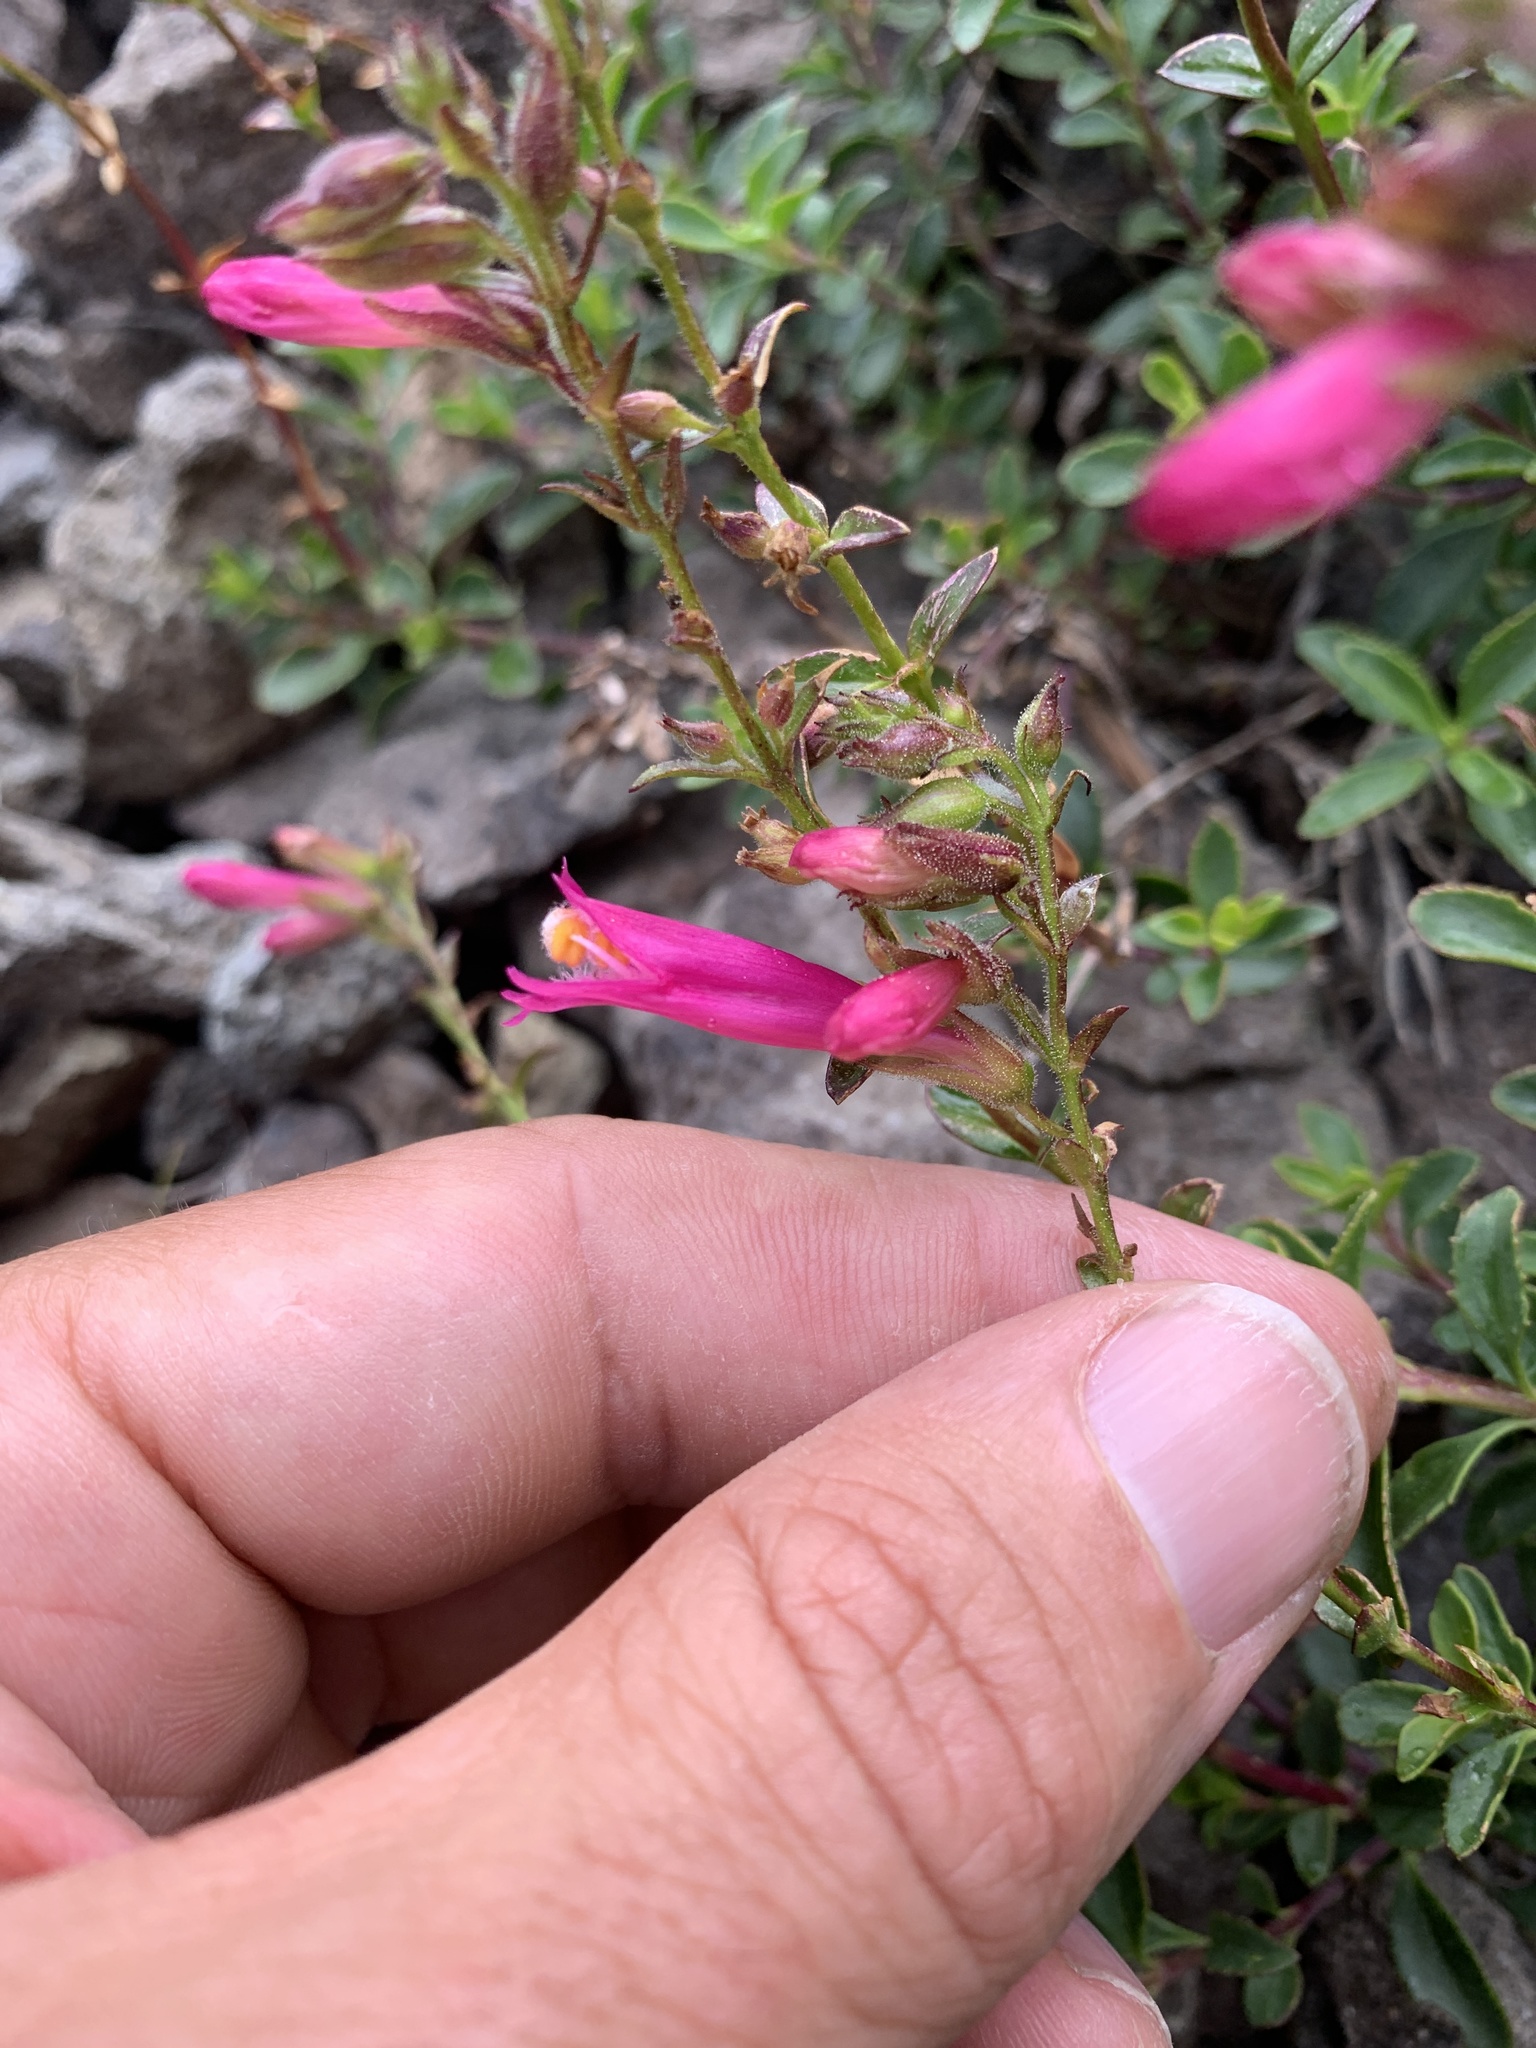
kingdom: Plantae
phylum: Tracheophyta
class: Magnoliopsida
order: Lamiales
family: Plantaginaceae
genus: Penstemon
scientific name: Penstemon newberryi
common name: Mountain-pride
